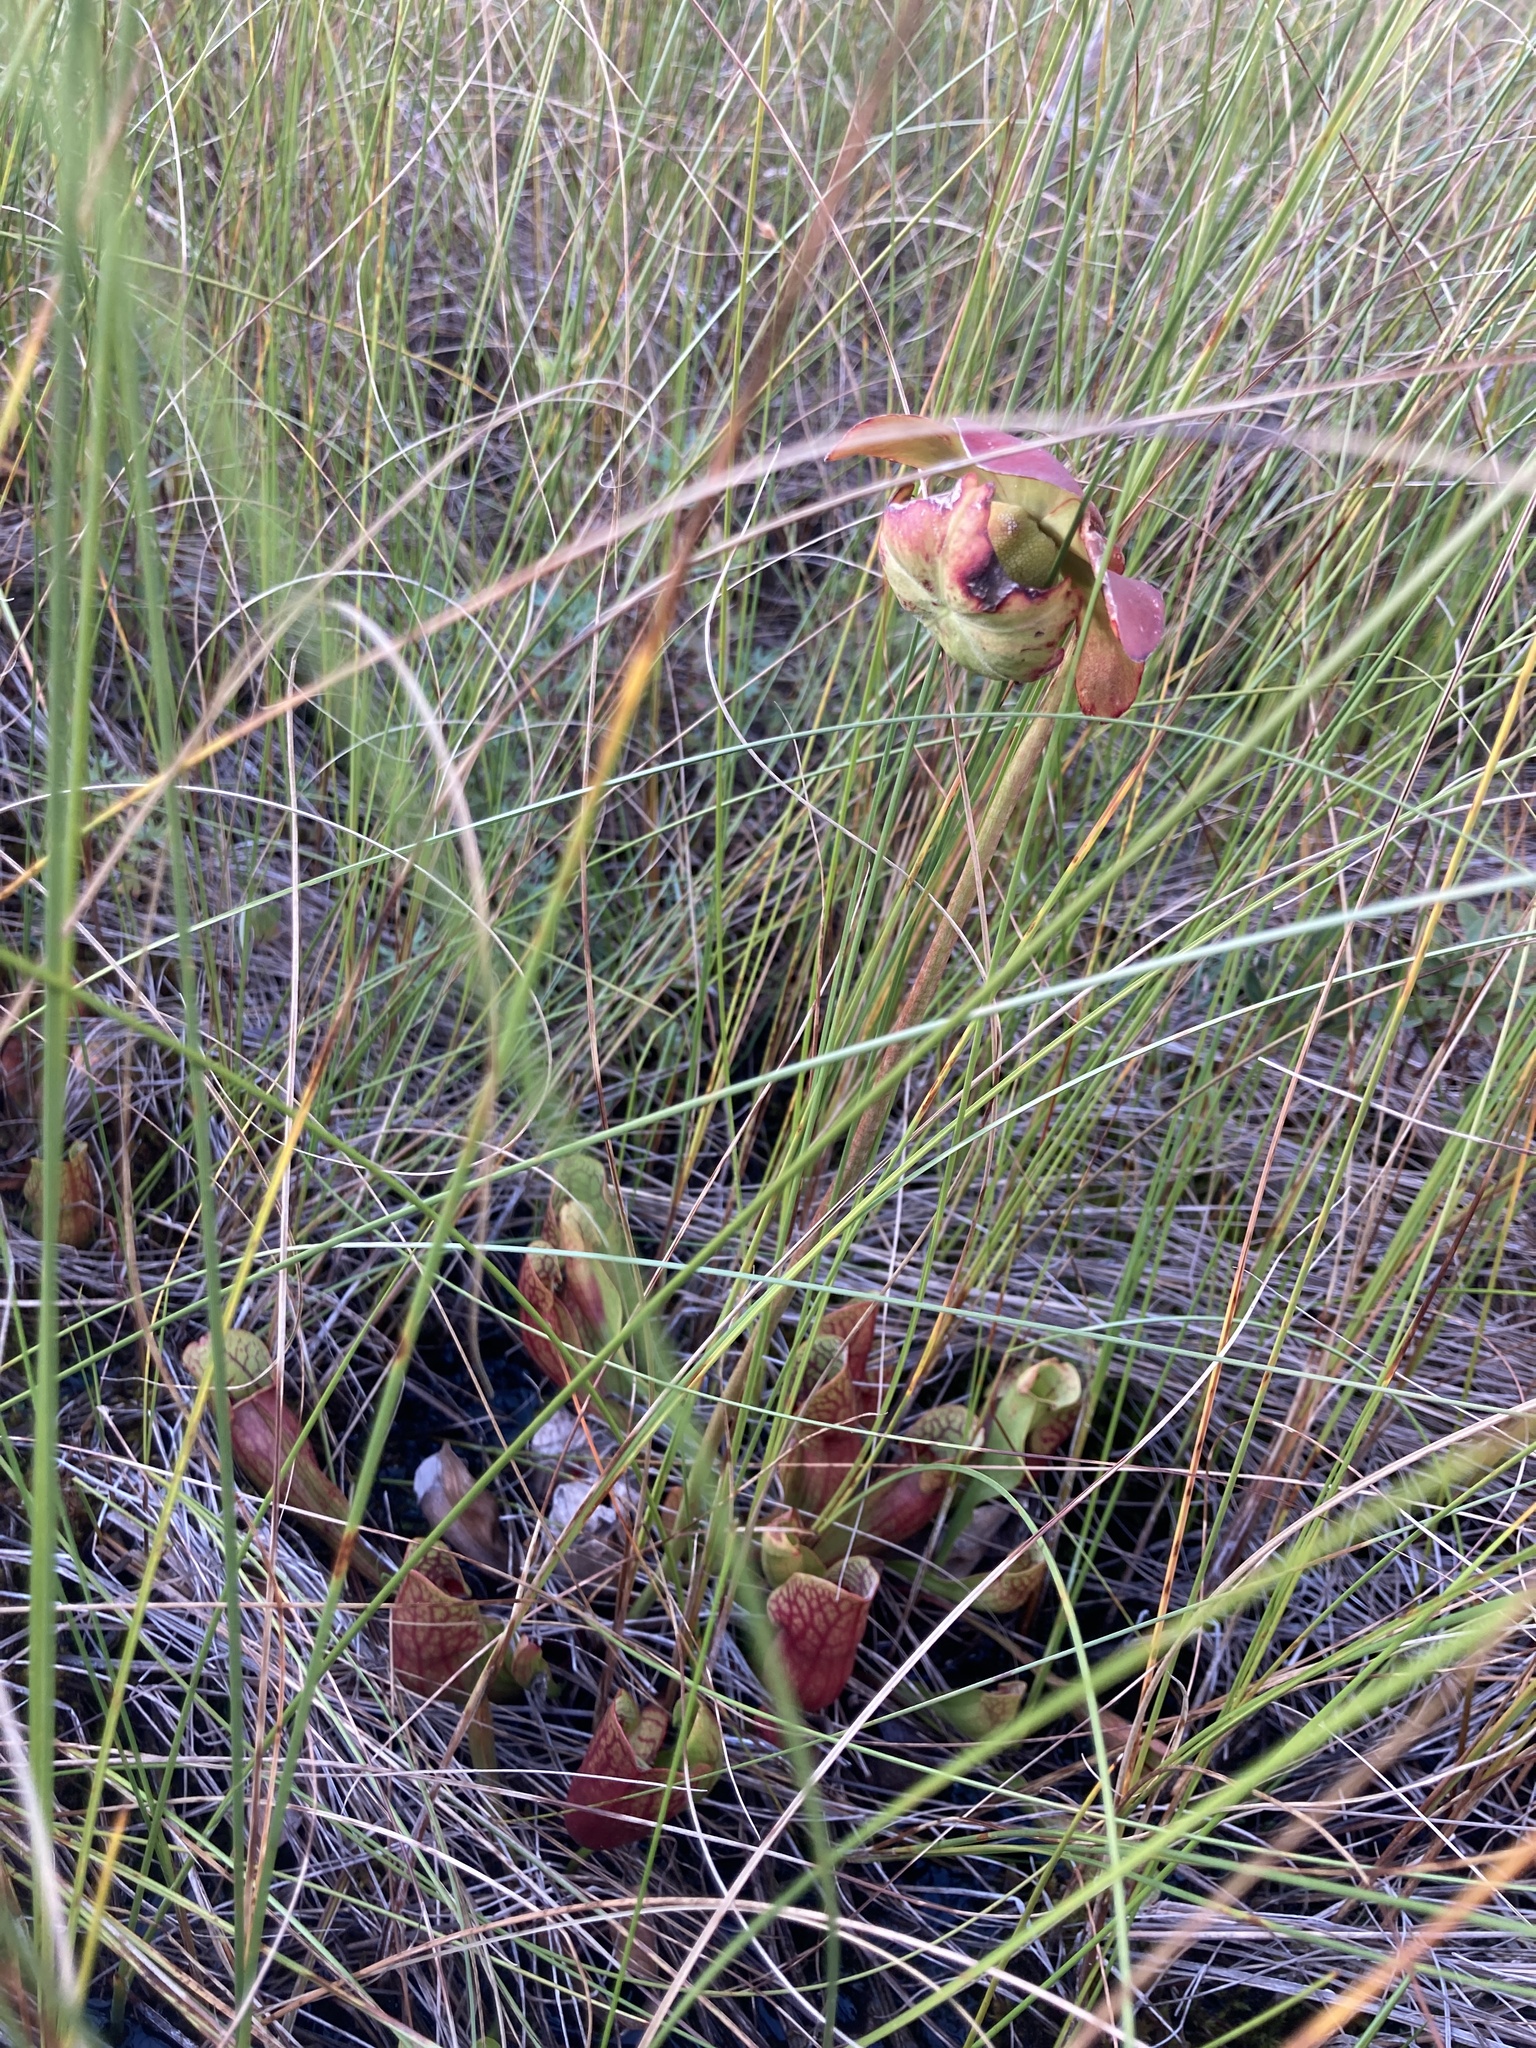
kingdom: Plantae
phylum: Tracheophyta
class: Magnoliopsida
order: Ericales
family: Sarraceniaceae
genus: Sarracenia
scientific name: Sarracenia purpurea
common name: Pitcherplant
